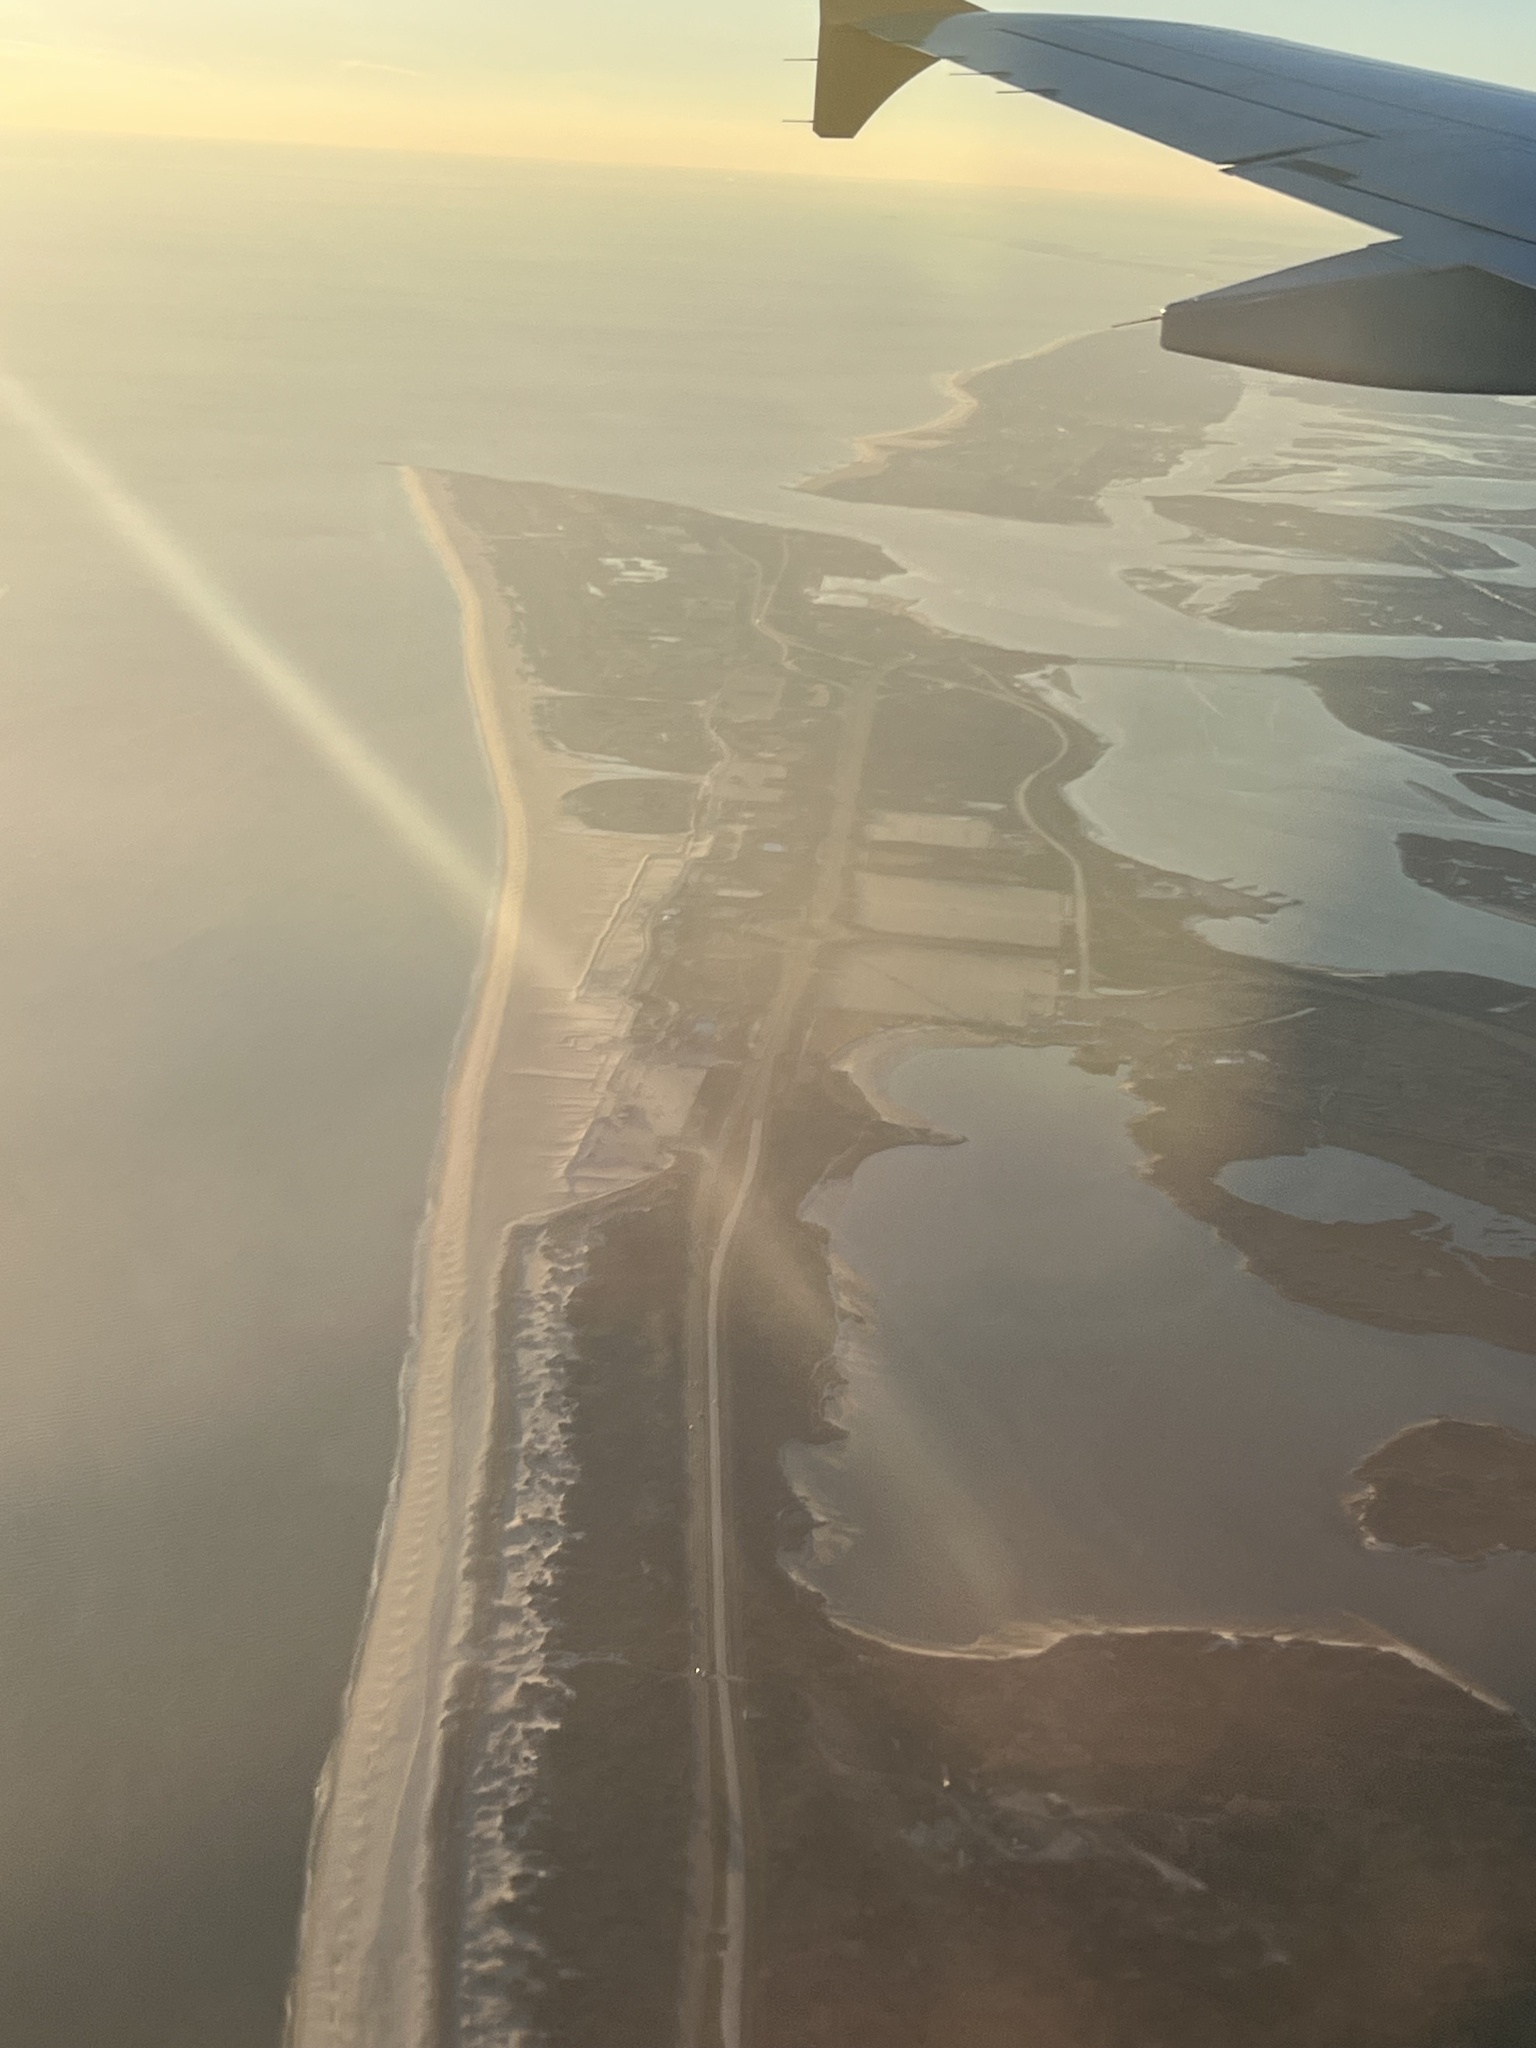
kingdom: Plantae
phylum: Tracheophyta
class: Pinopsida
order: Pinales
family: Pinaceae
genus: Pinus
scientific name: Pinus rigida
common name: Pitch pine
